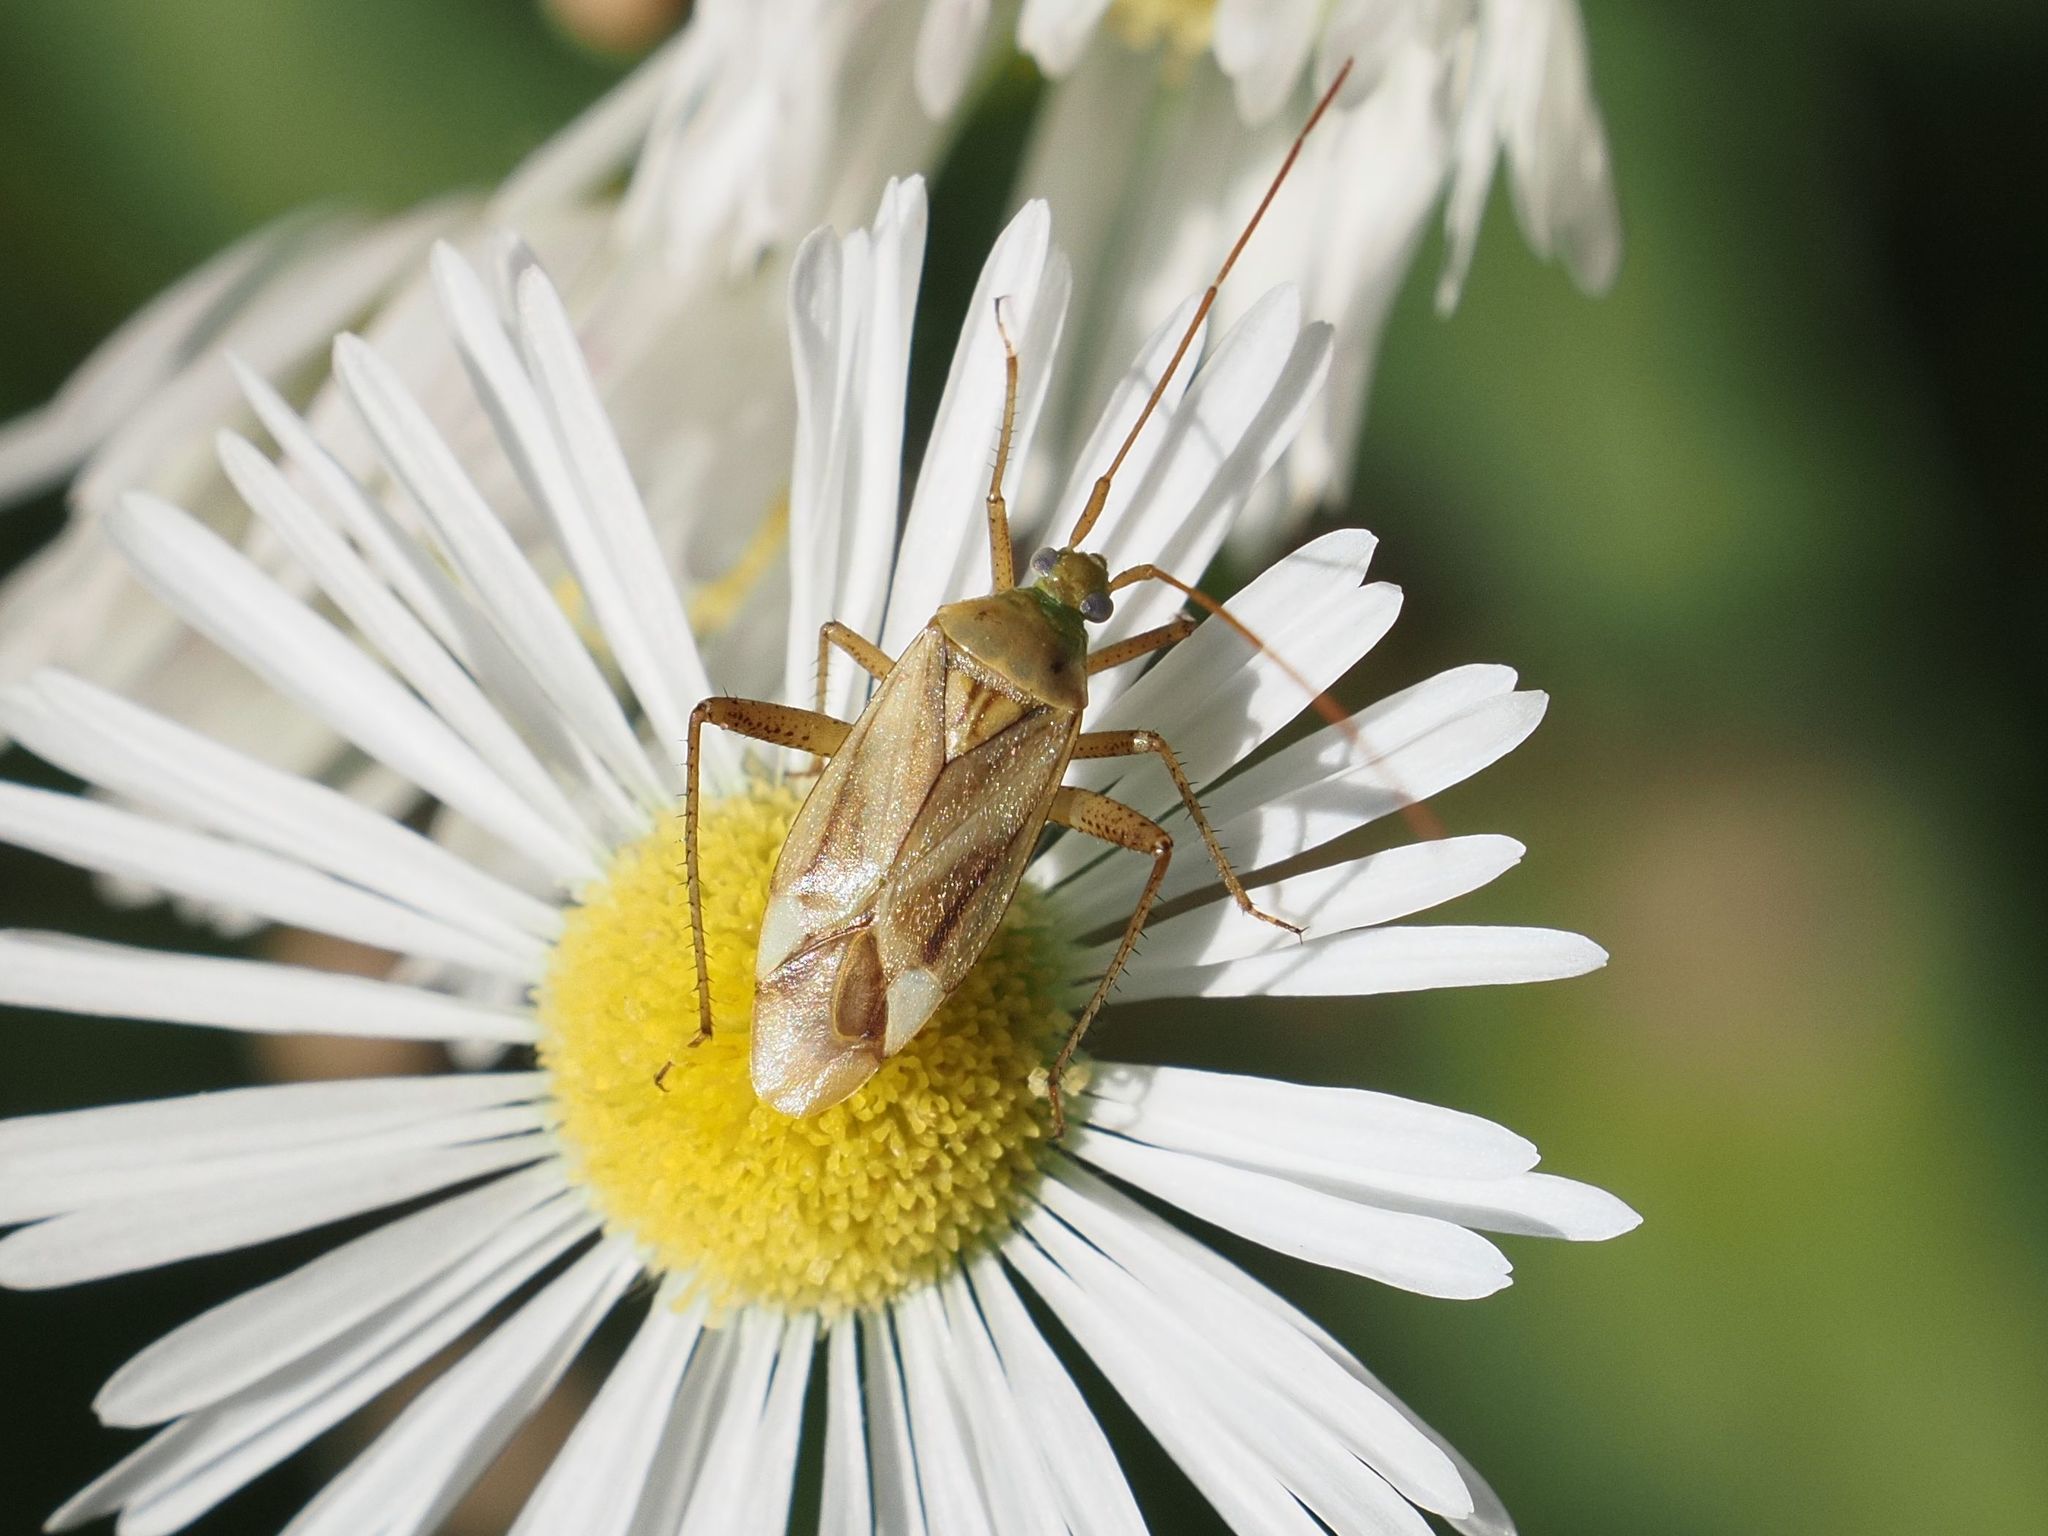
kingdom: Animalia
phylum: Arthropoda
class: Insecta
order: Hemiptera
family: Miridae
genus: Adelphocoris
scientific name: Adelphocoris lineolatus
